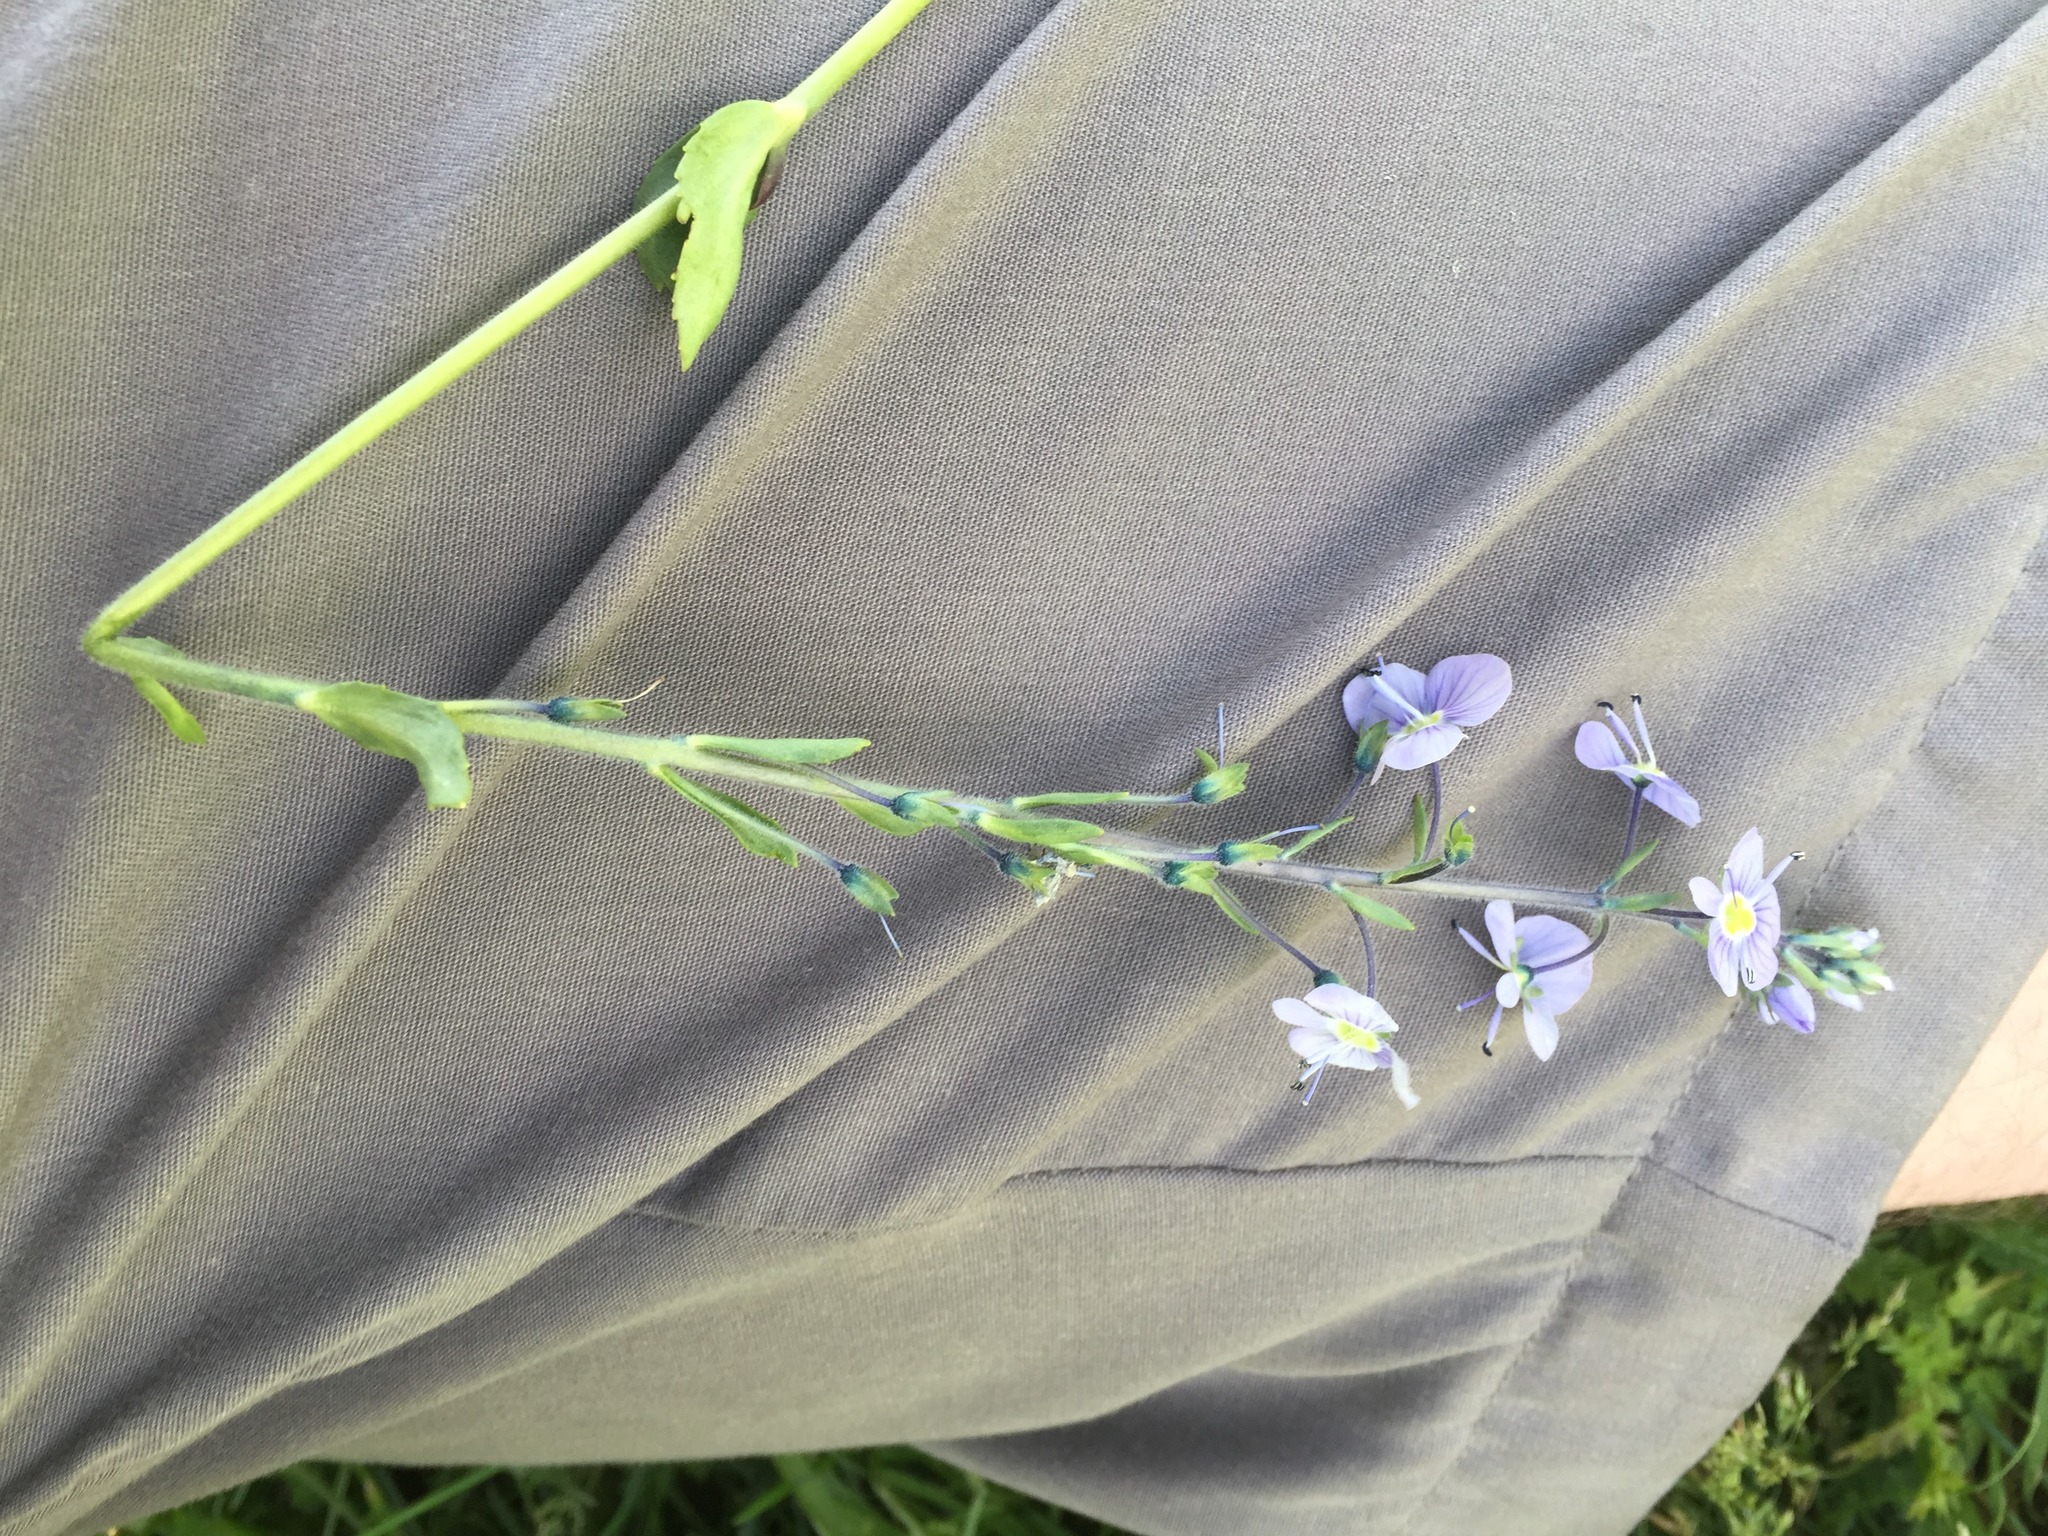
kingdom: Plantae
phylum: Tracheophyta
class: Magnoliopsida
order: Lamiales
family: Plantaginaceae
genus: Veronica
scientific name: Veronica gentianoides
